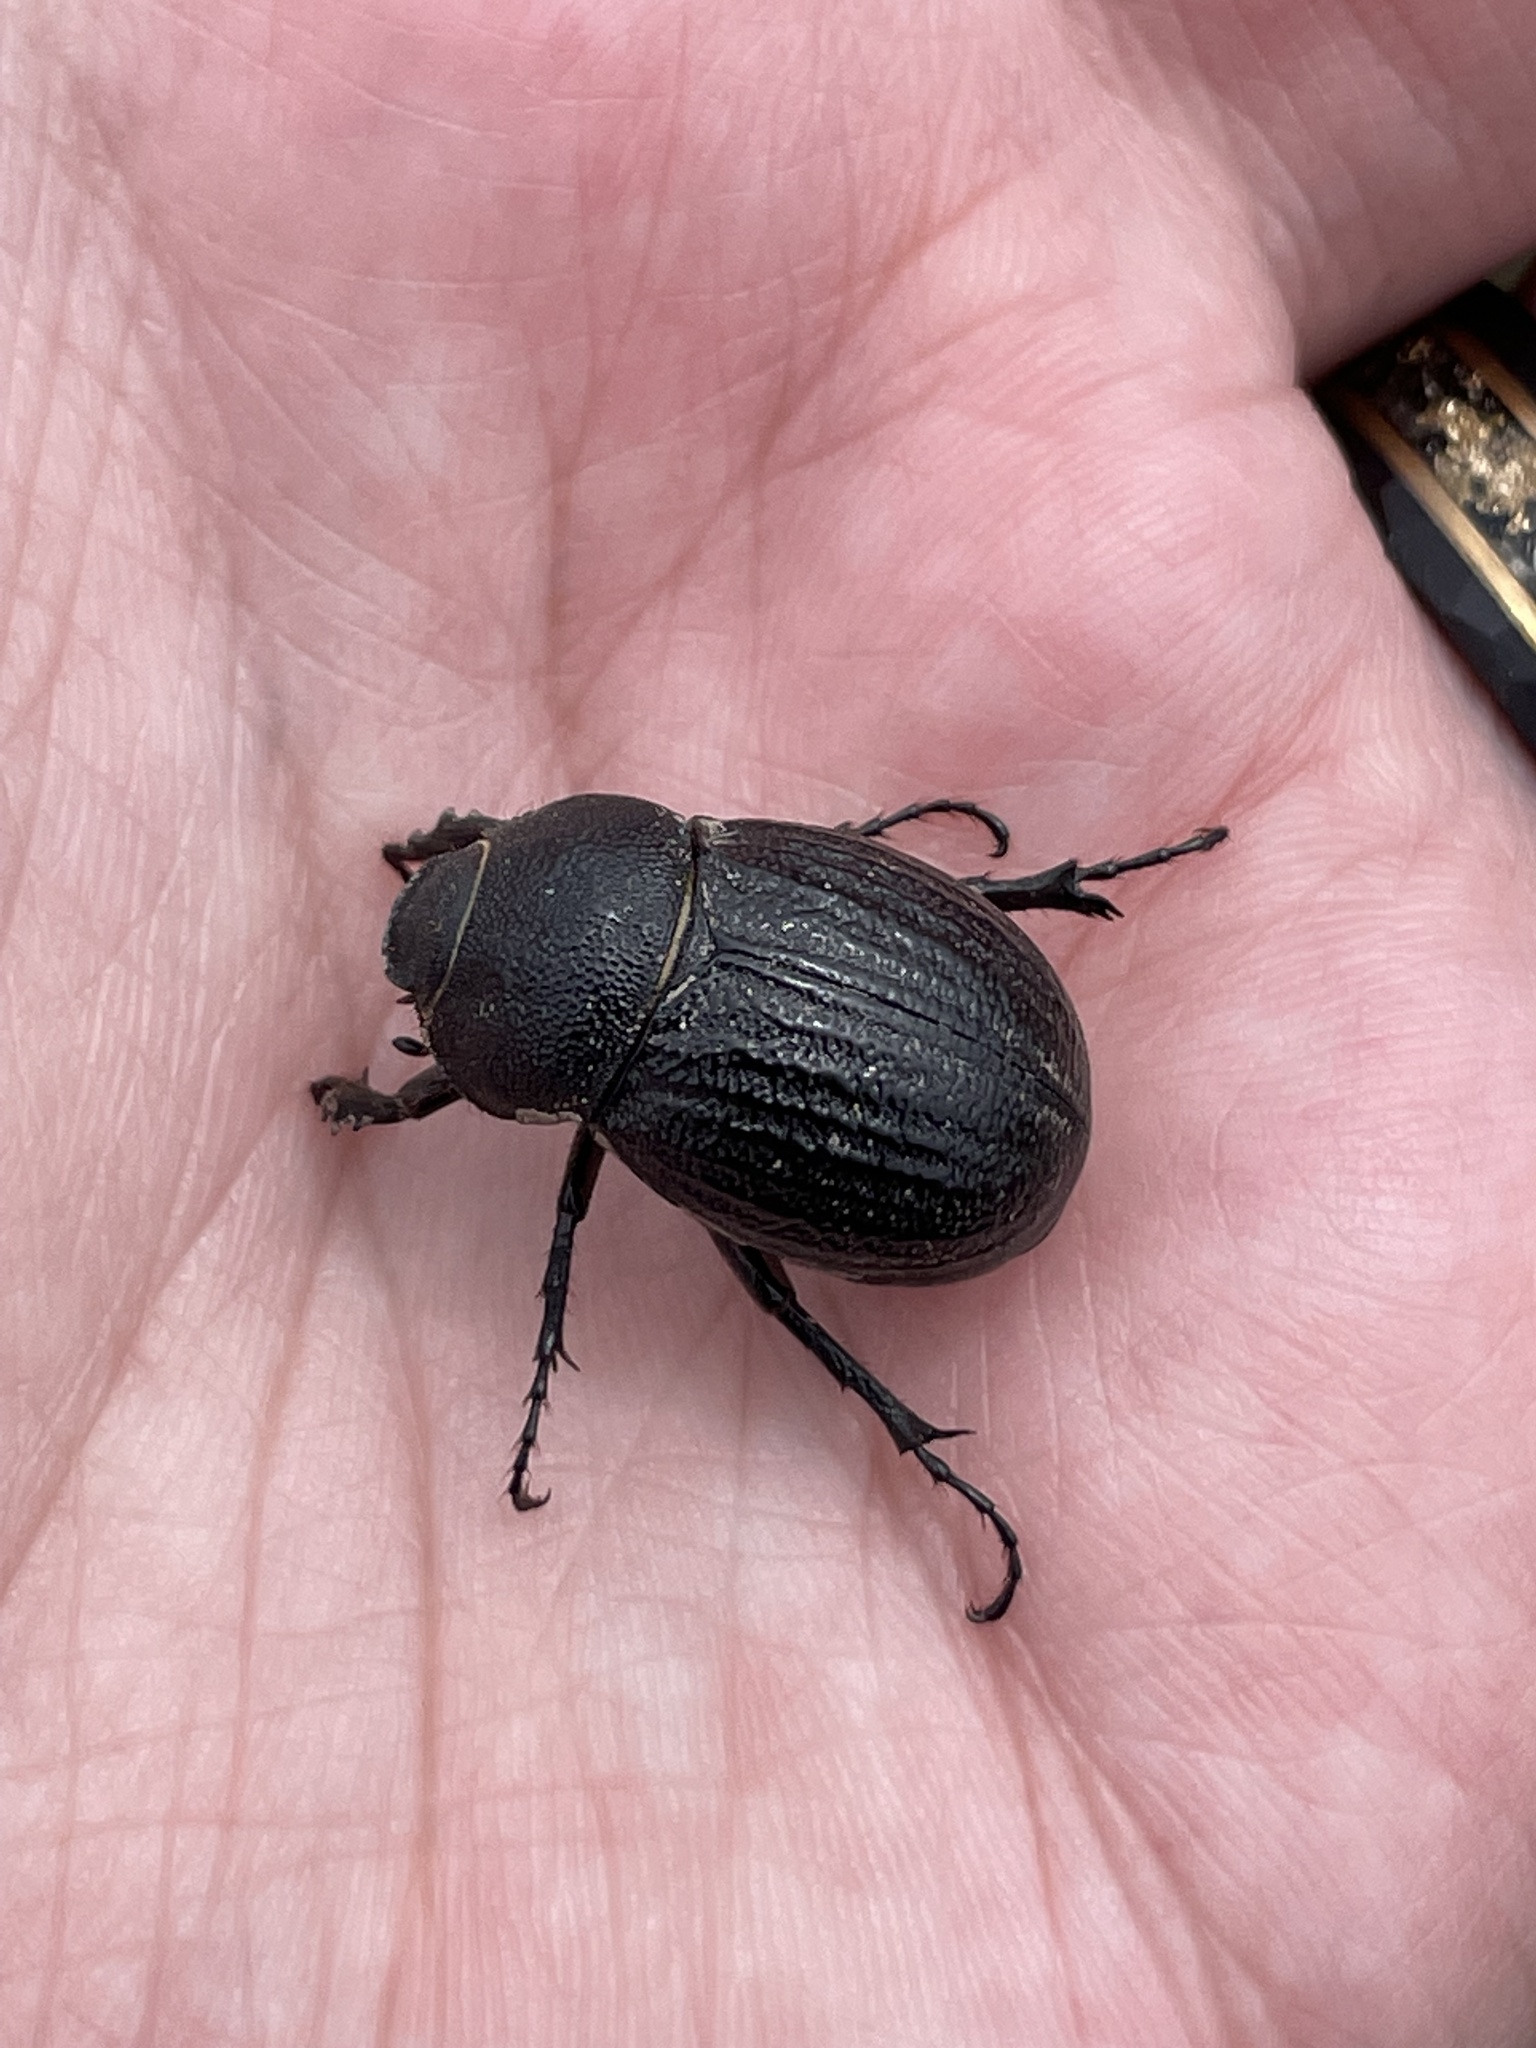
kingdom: Animalia
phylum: Arthropoda
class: Insecta
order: Coleoptera
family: Scarabaeidae
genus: Phyllophaga
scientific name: Phyllophaga cribrosa
